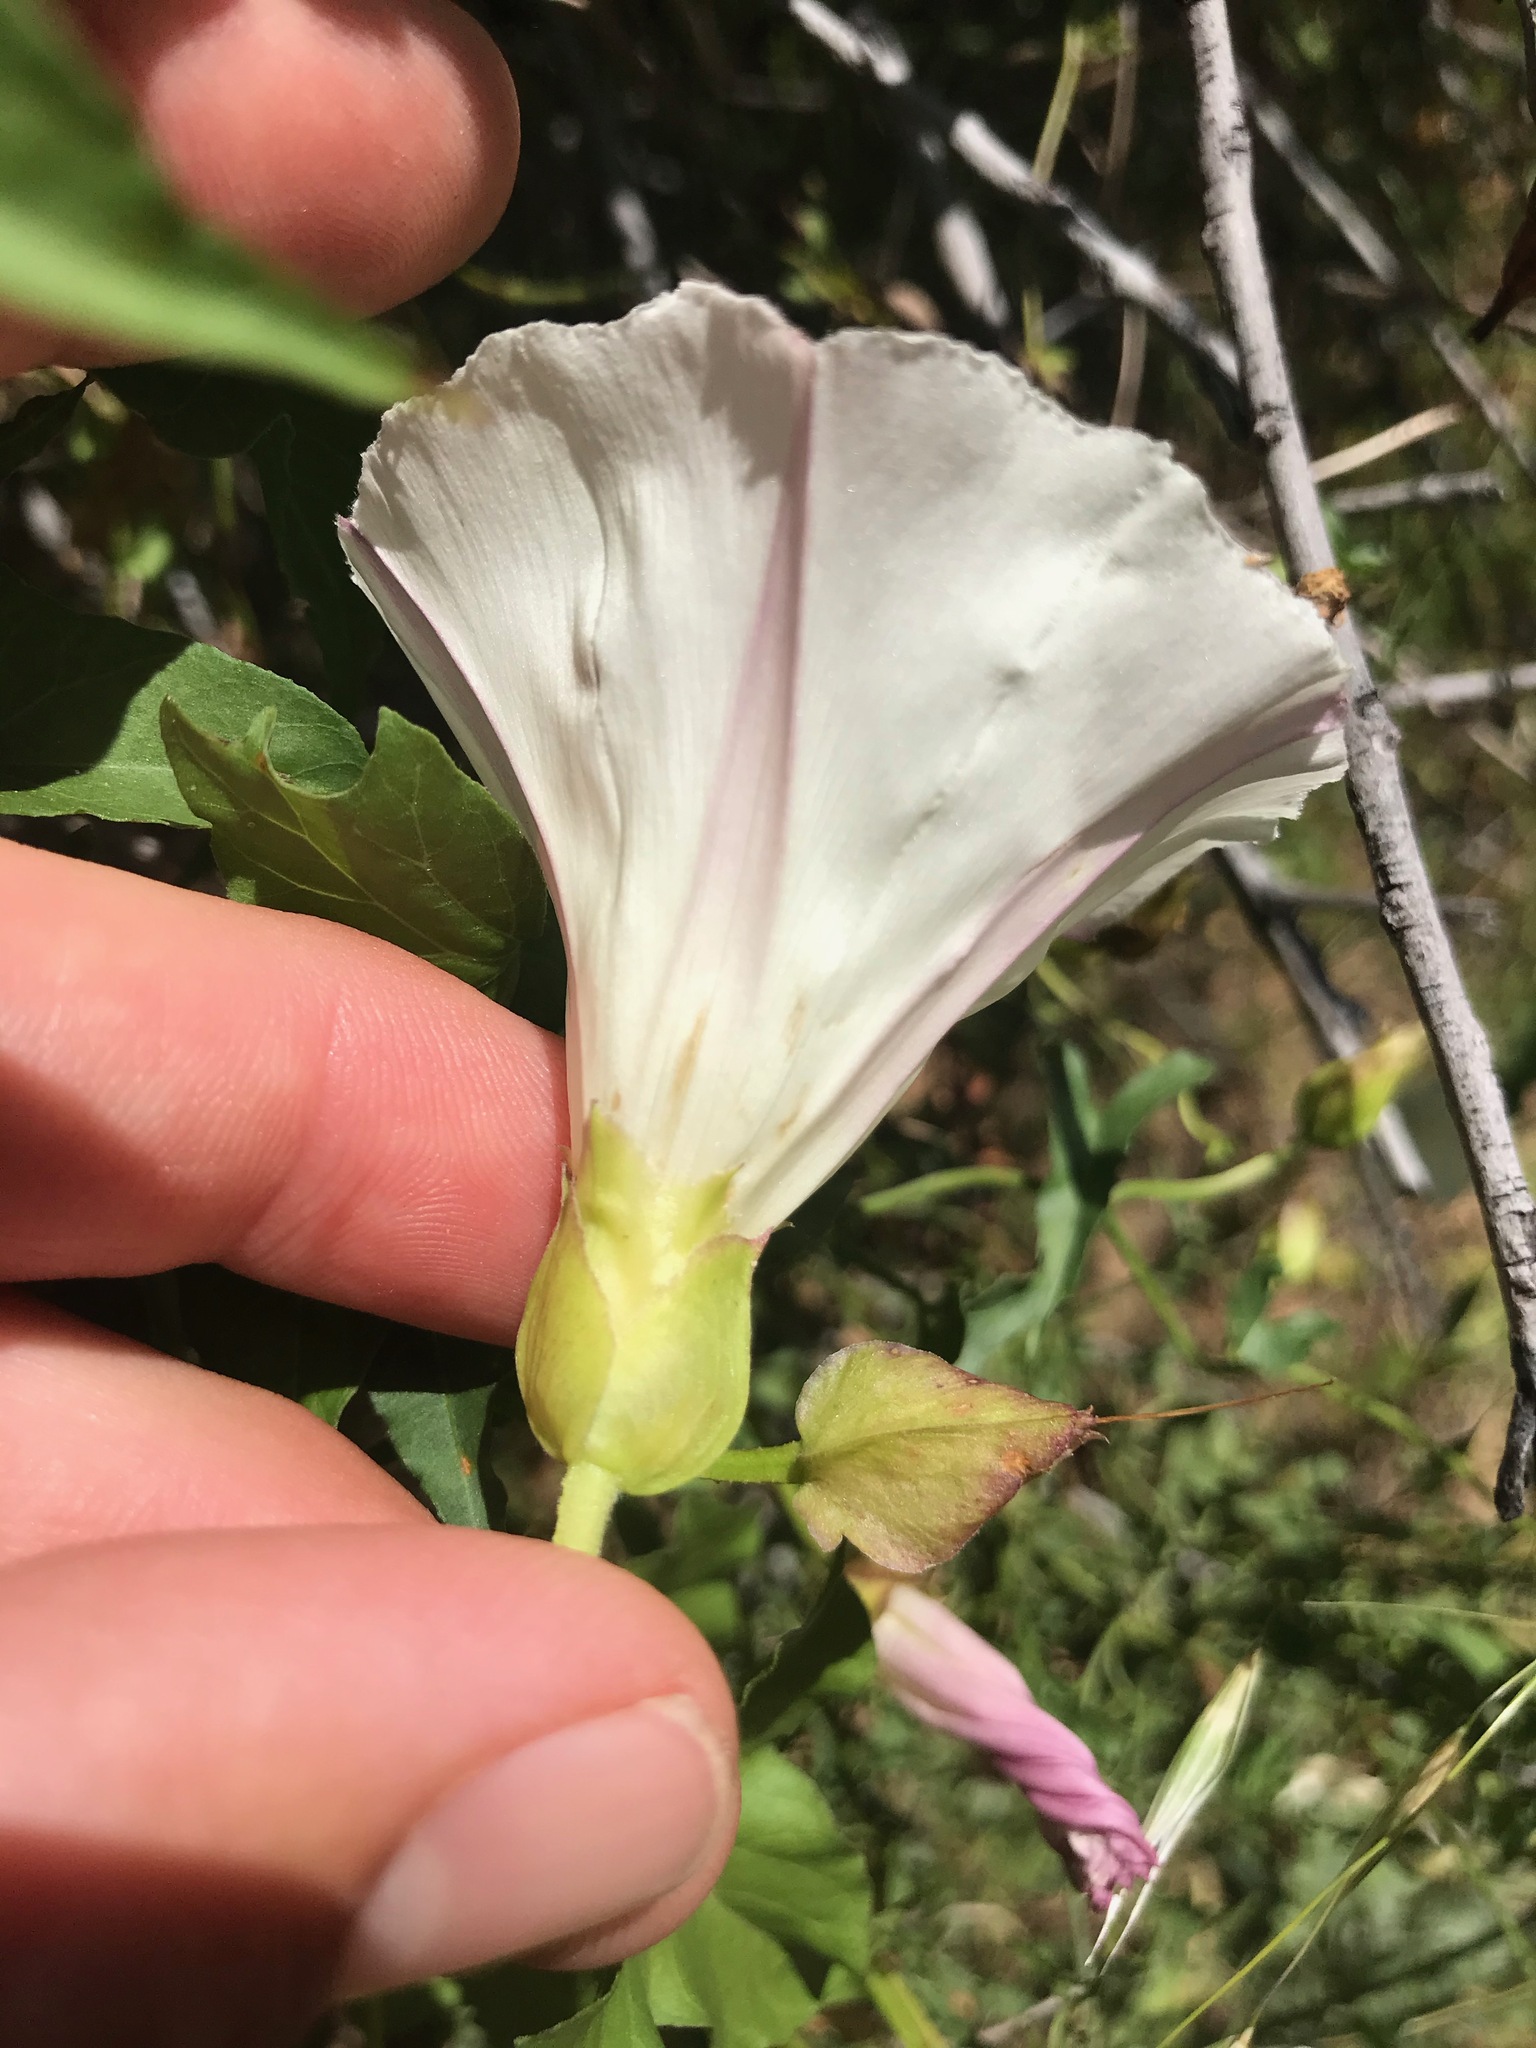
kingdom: Plantae
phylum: Tracheophyta
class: Magnoliopsida
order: Solanales
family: Convolvulaceae
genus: Calystegia
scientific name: Calystegia macrostegia
